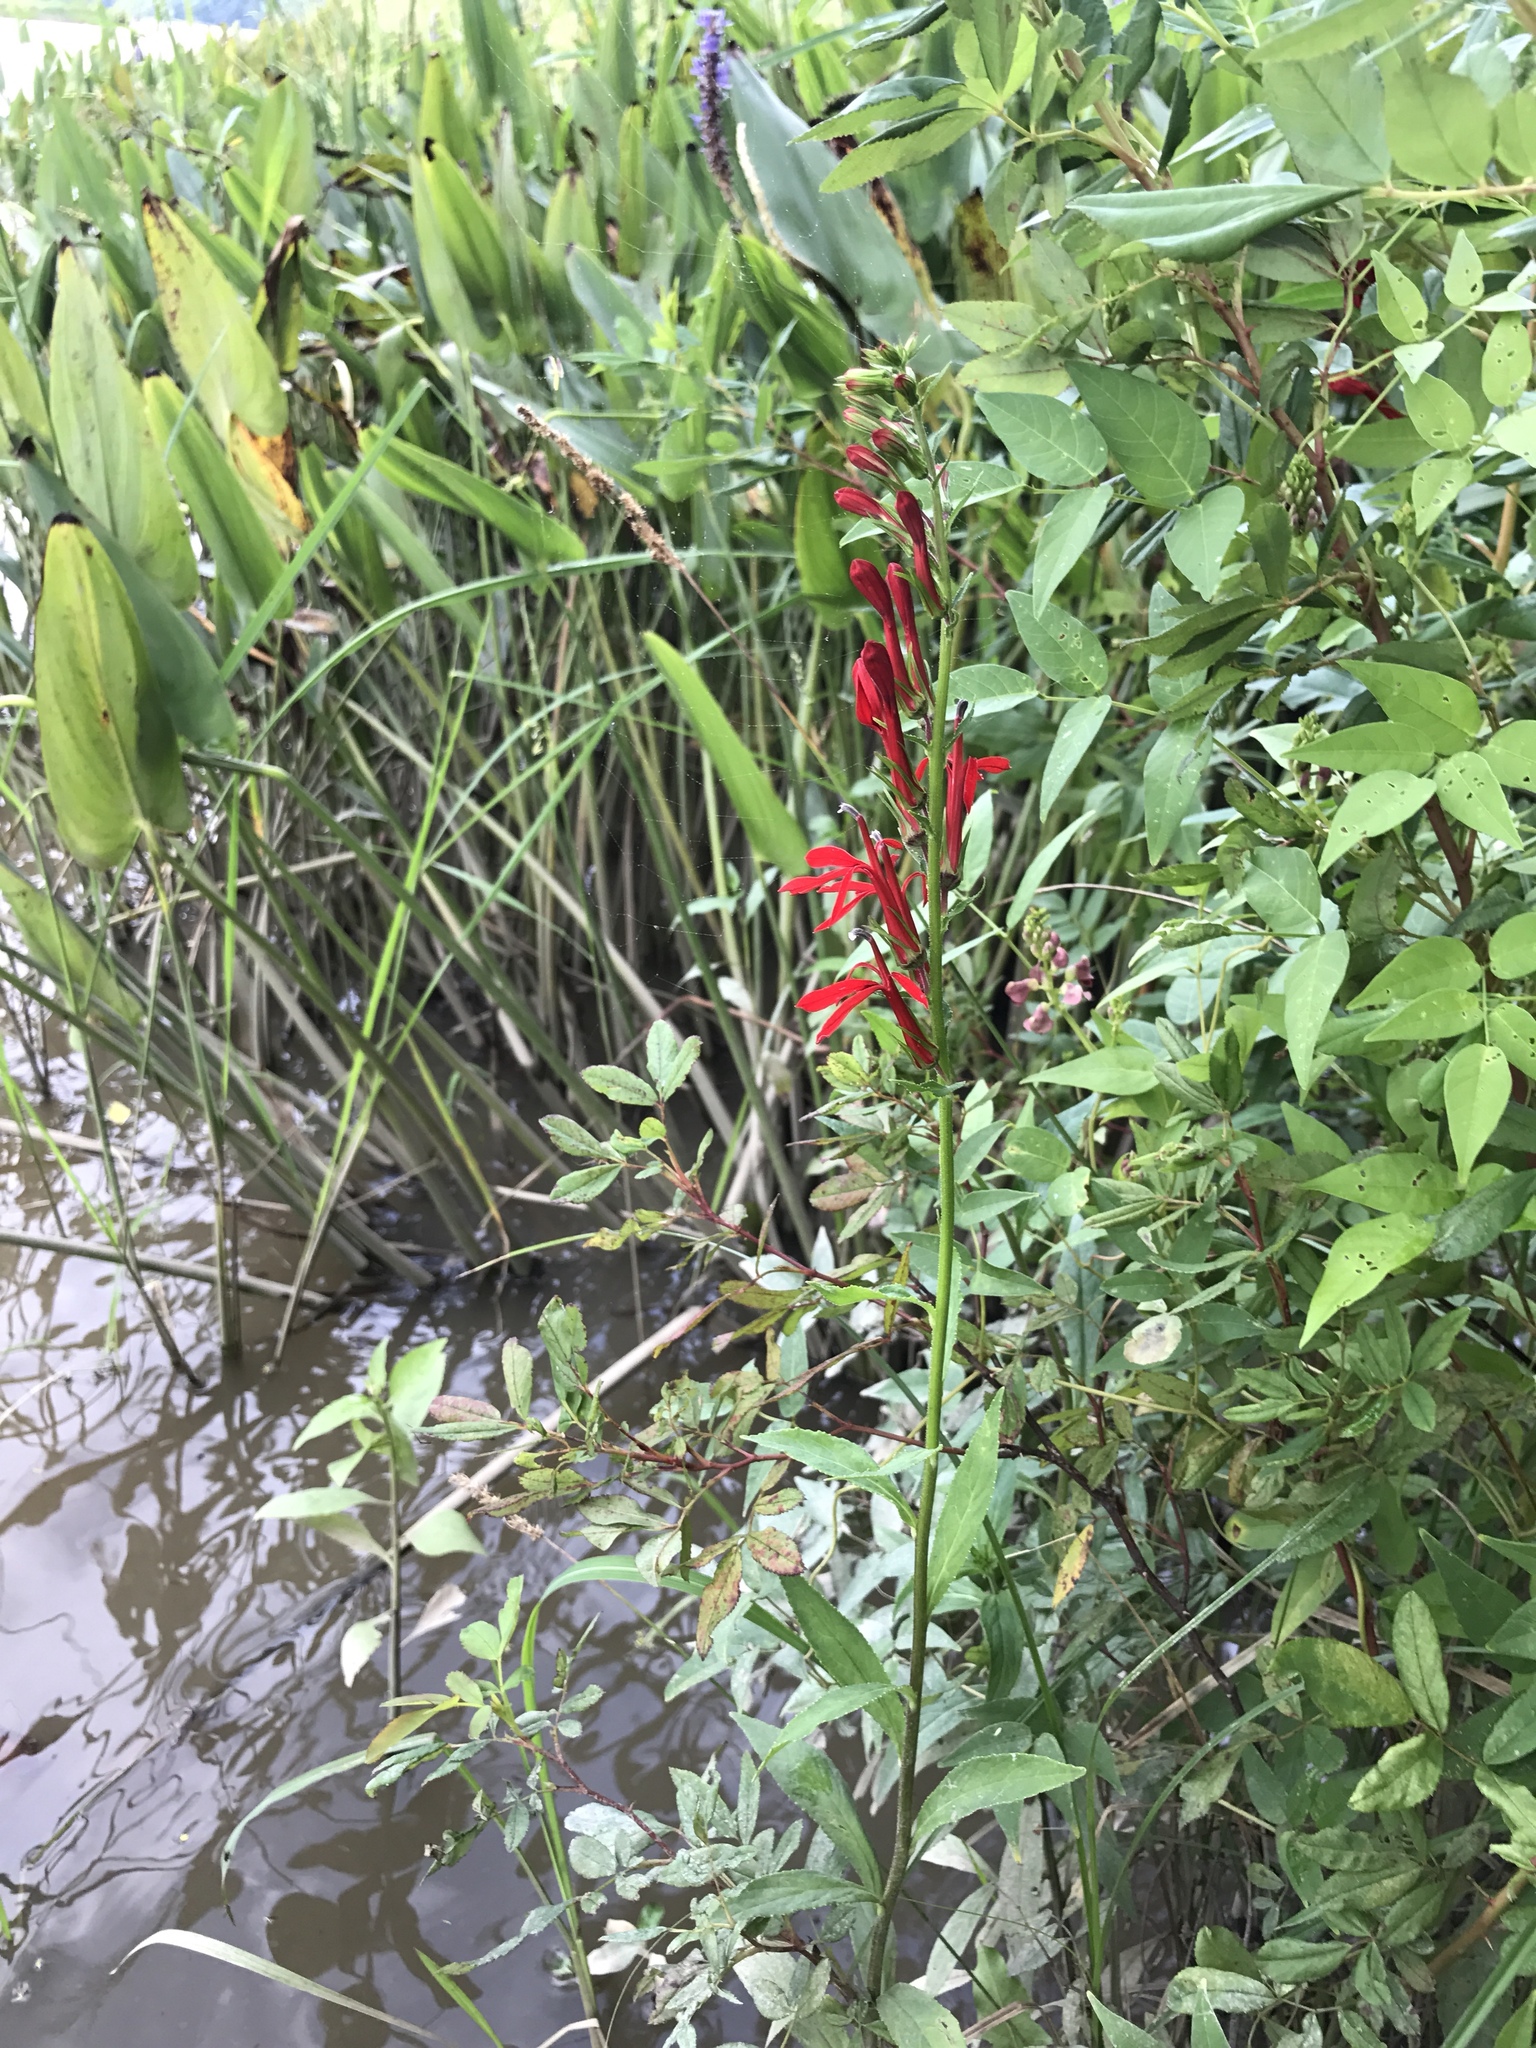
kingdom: Plantae
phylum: Tracheophyta
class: Magnoliopsida
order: Asterales
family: Campanulaceae
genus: Lobelia
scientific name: Lobelia cardinalis
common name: Cardinal flower
